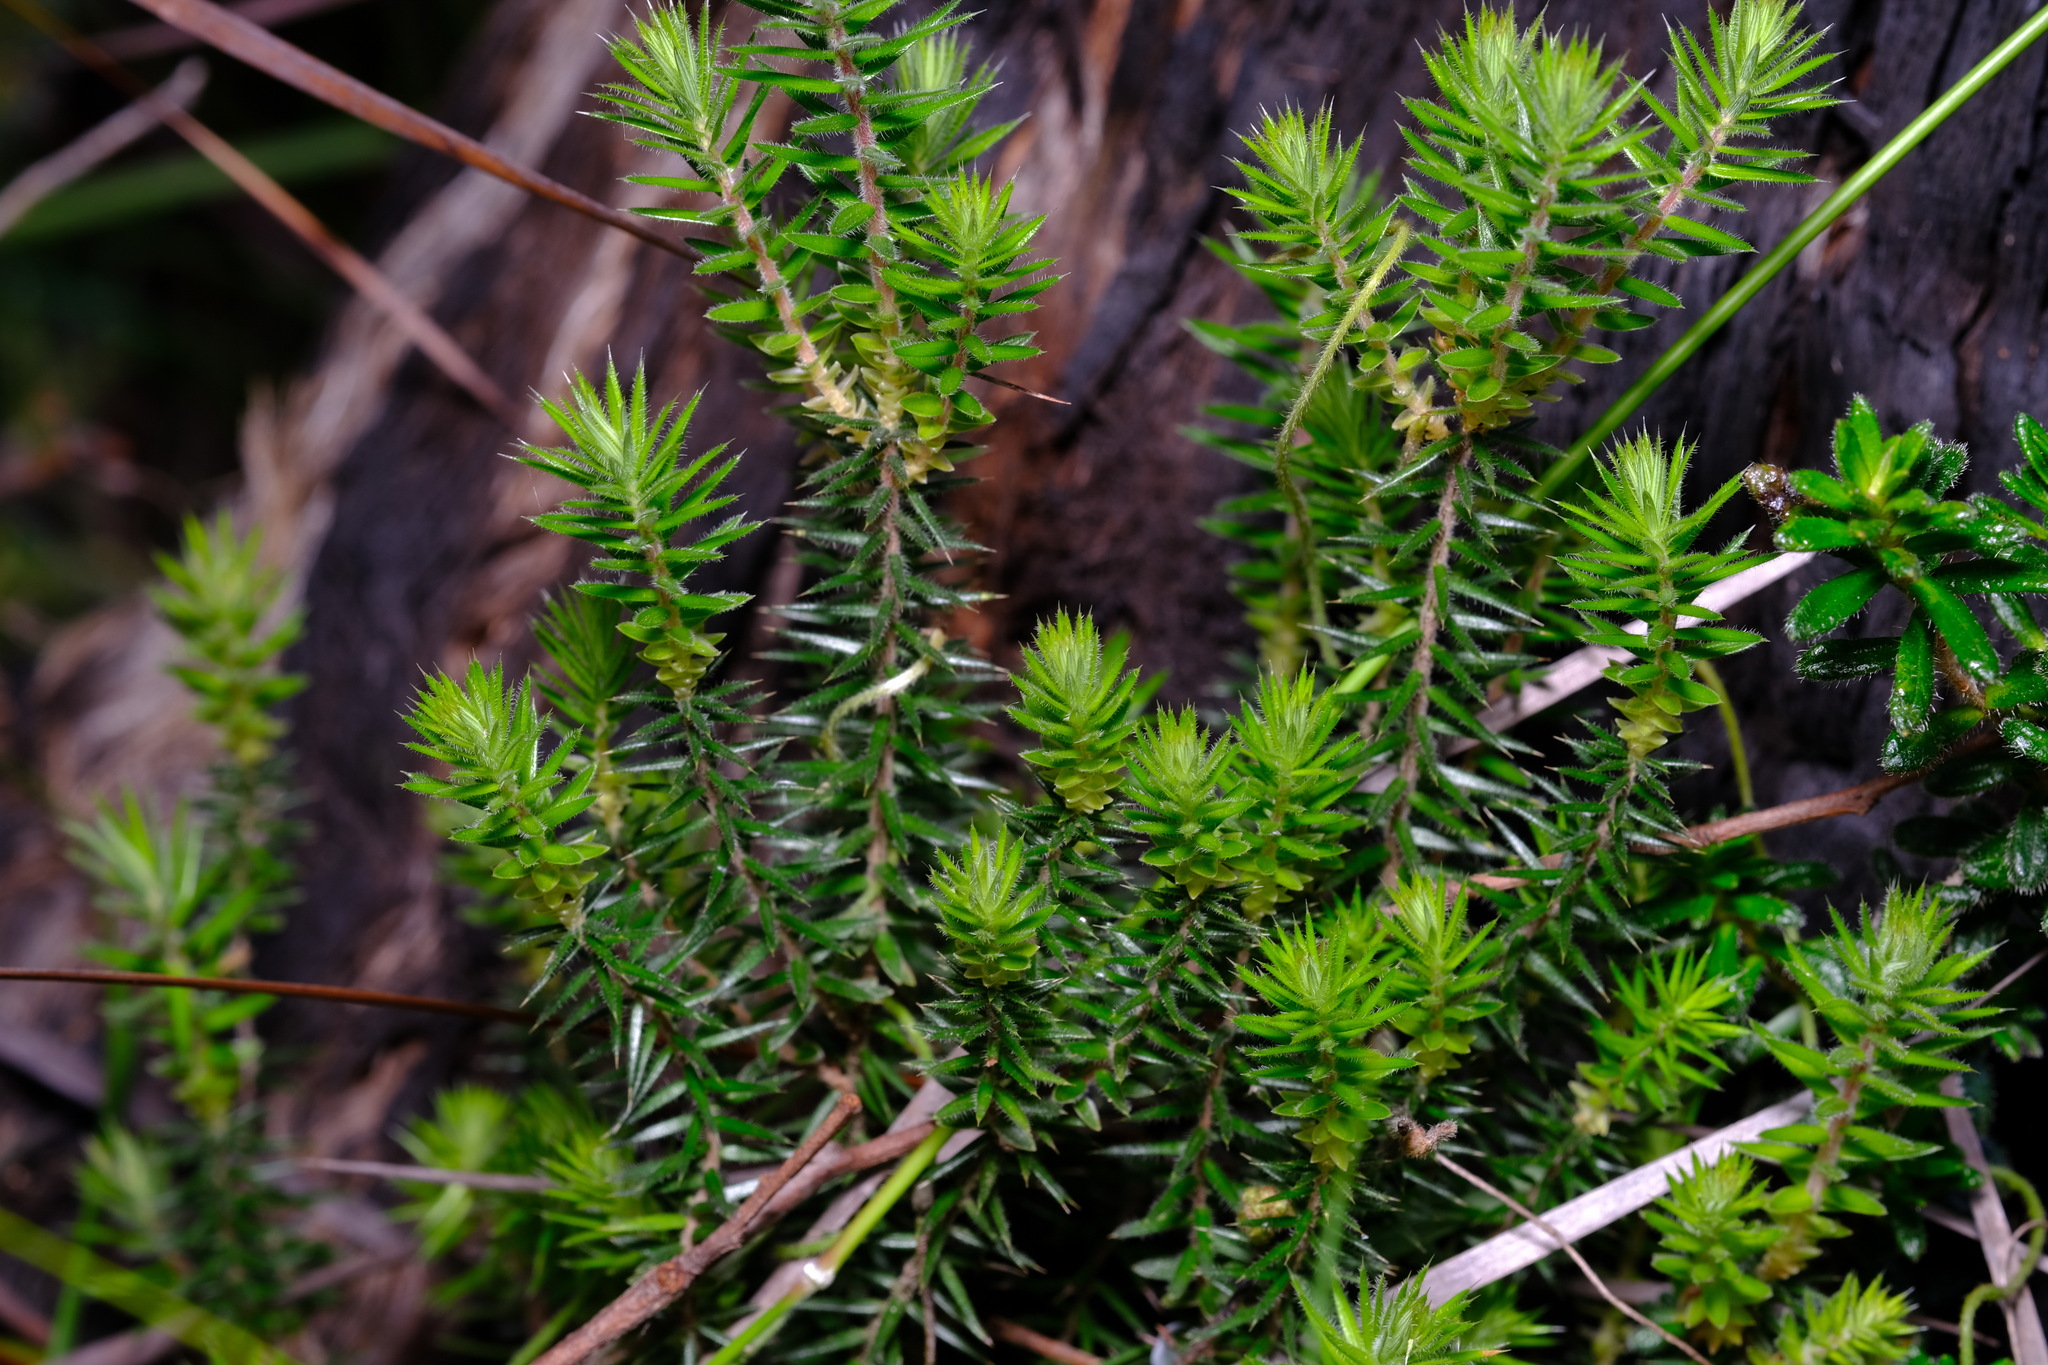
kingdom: Plantae
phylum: Tracheophyta
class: Magnoliopsida
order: Ericales
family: Ericaceae
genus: Acrotriche
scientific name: Acrotriche serrulata
